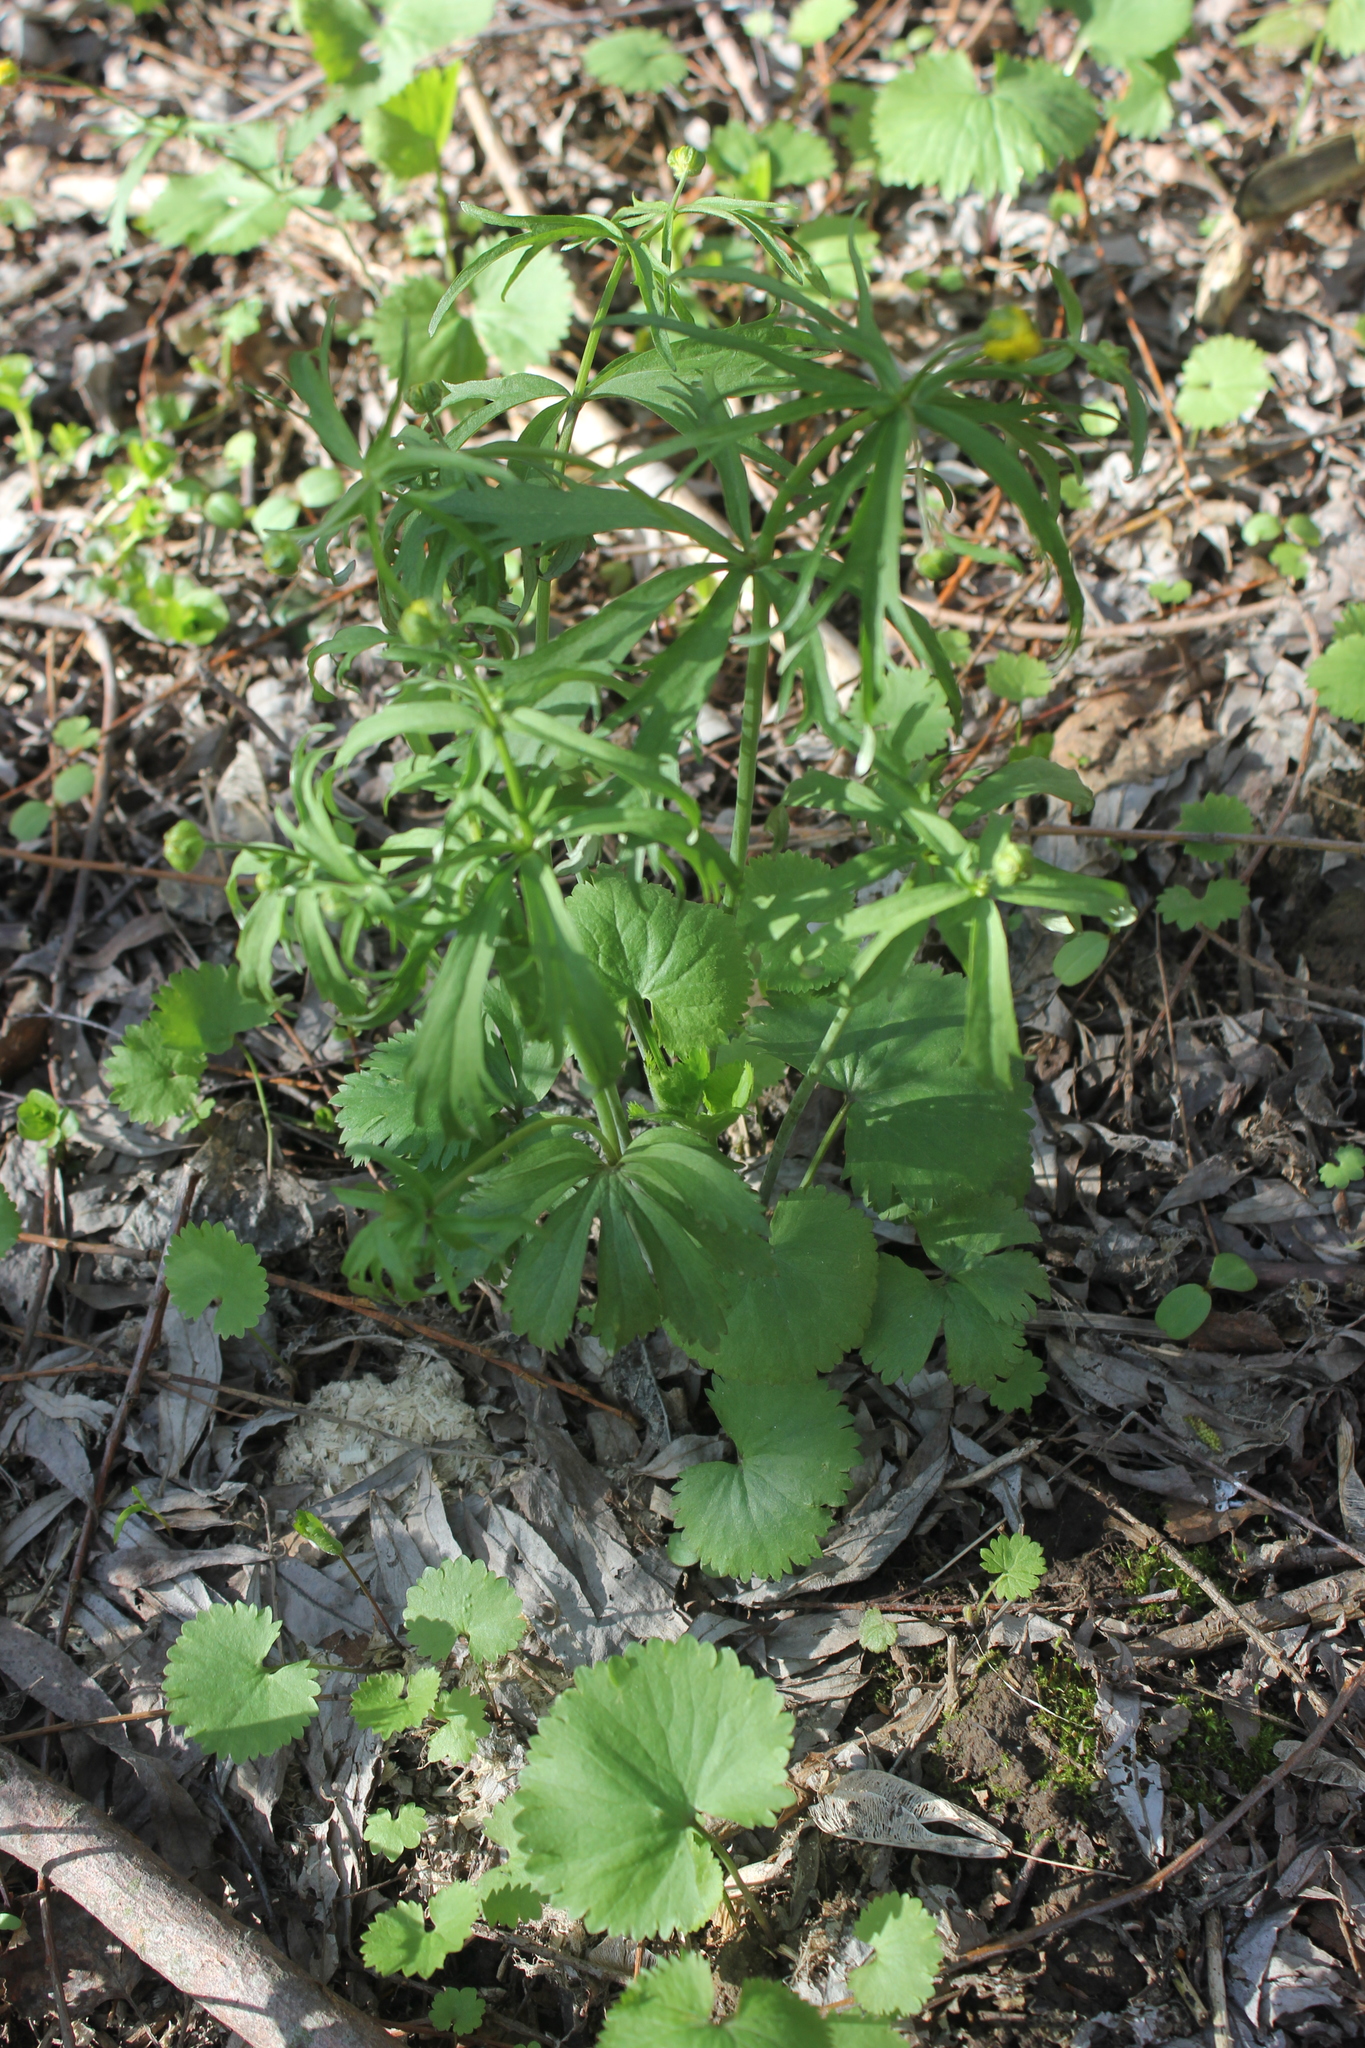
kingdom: Plantae
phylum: Tracheophyta
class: Magnoliopsida
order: Ranunculales
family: Ranunculaceae
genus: Ranunculus
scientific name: Ranunculus cassubicus
